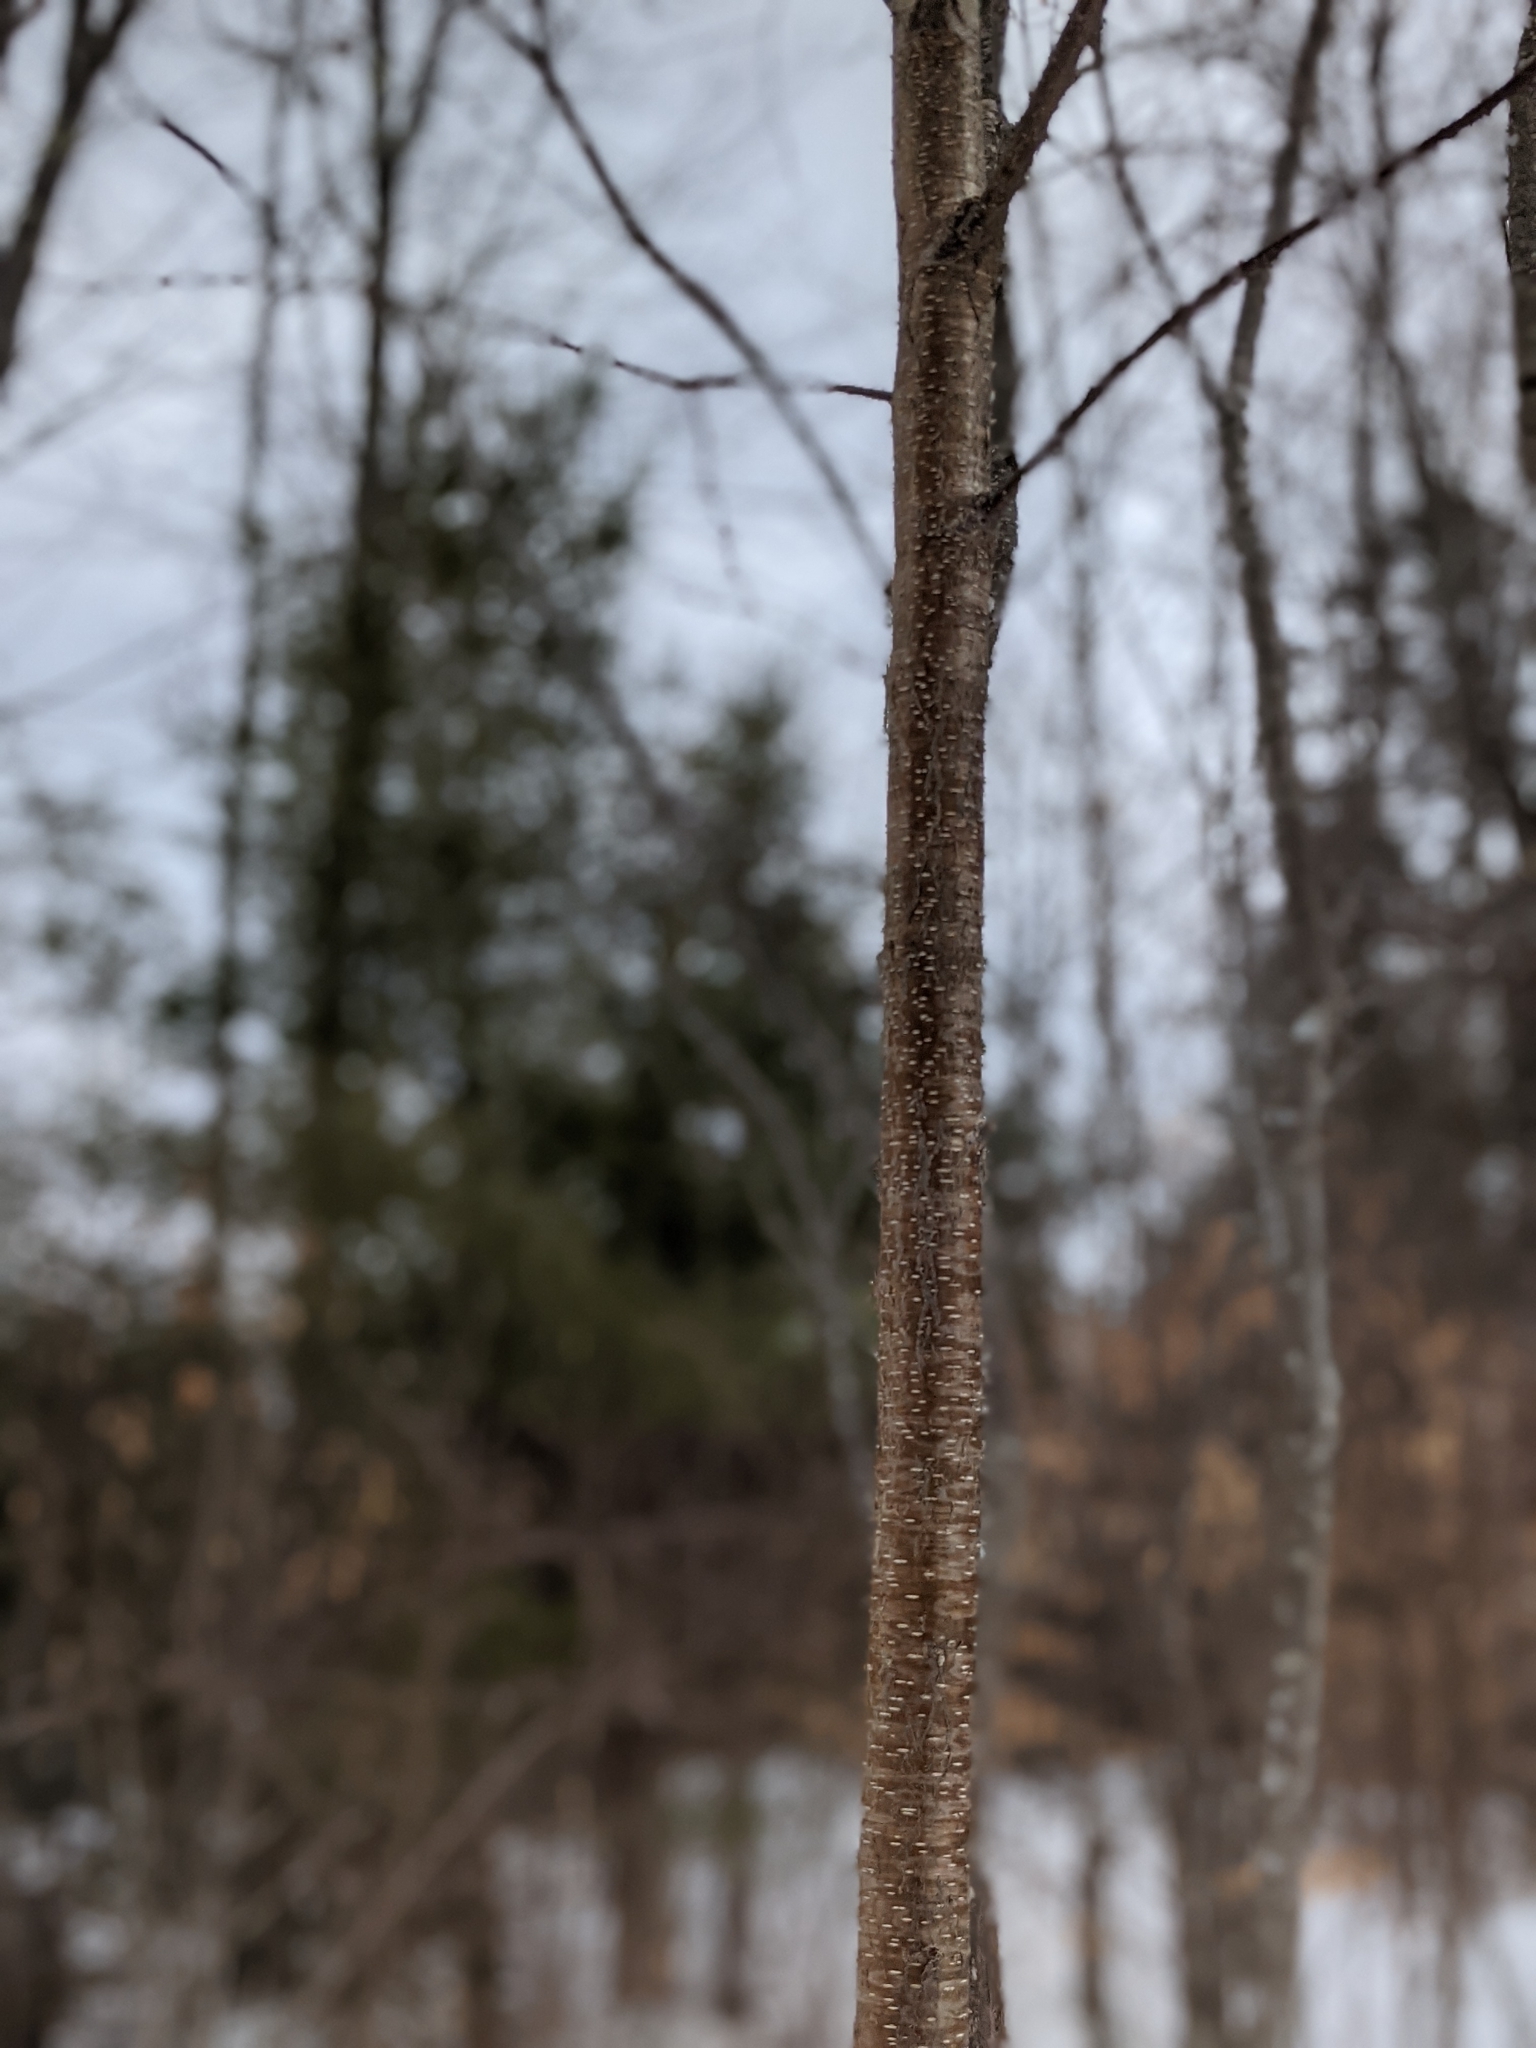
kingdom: Plantae
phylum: Tracheophyta
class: Magnoliopsida
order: Fagales
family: Betulaceae
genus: Betula
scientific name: Betula alleghaniensis
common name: Yellow birch
